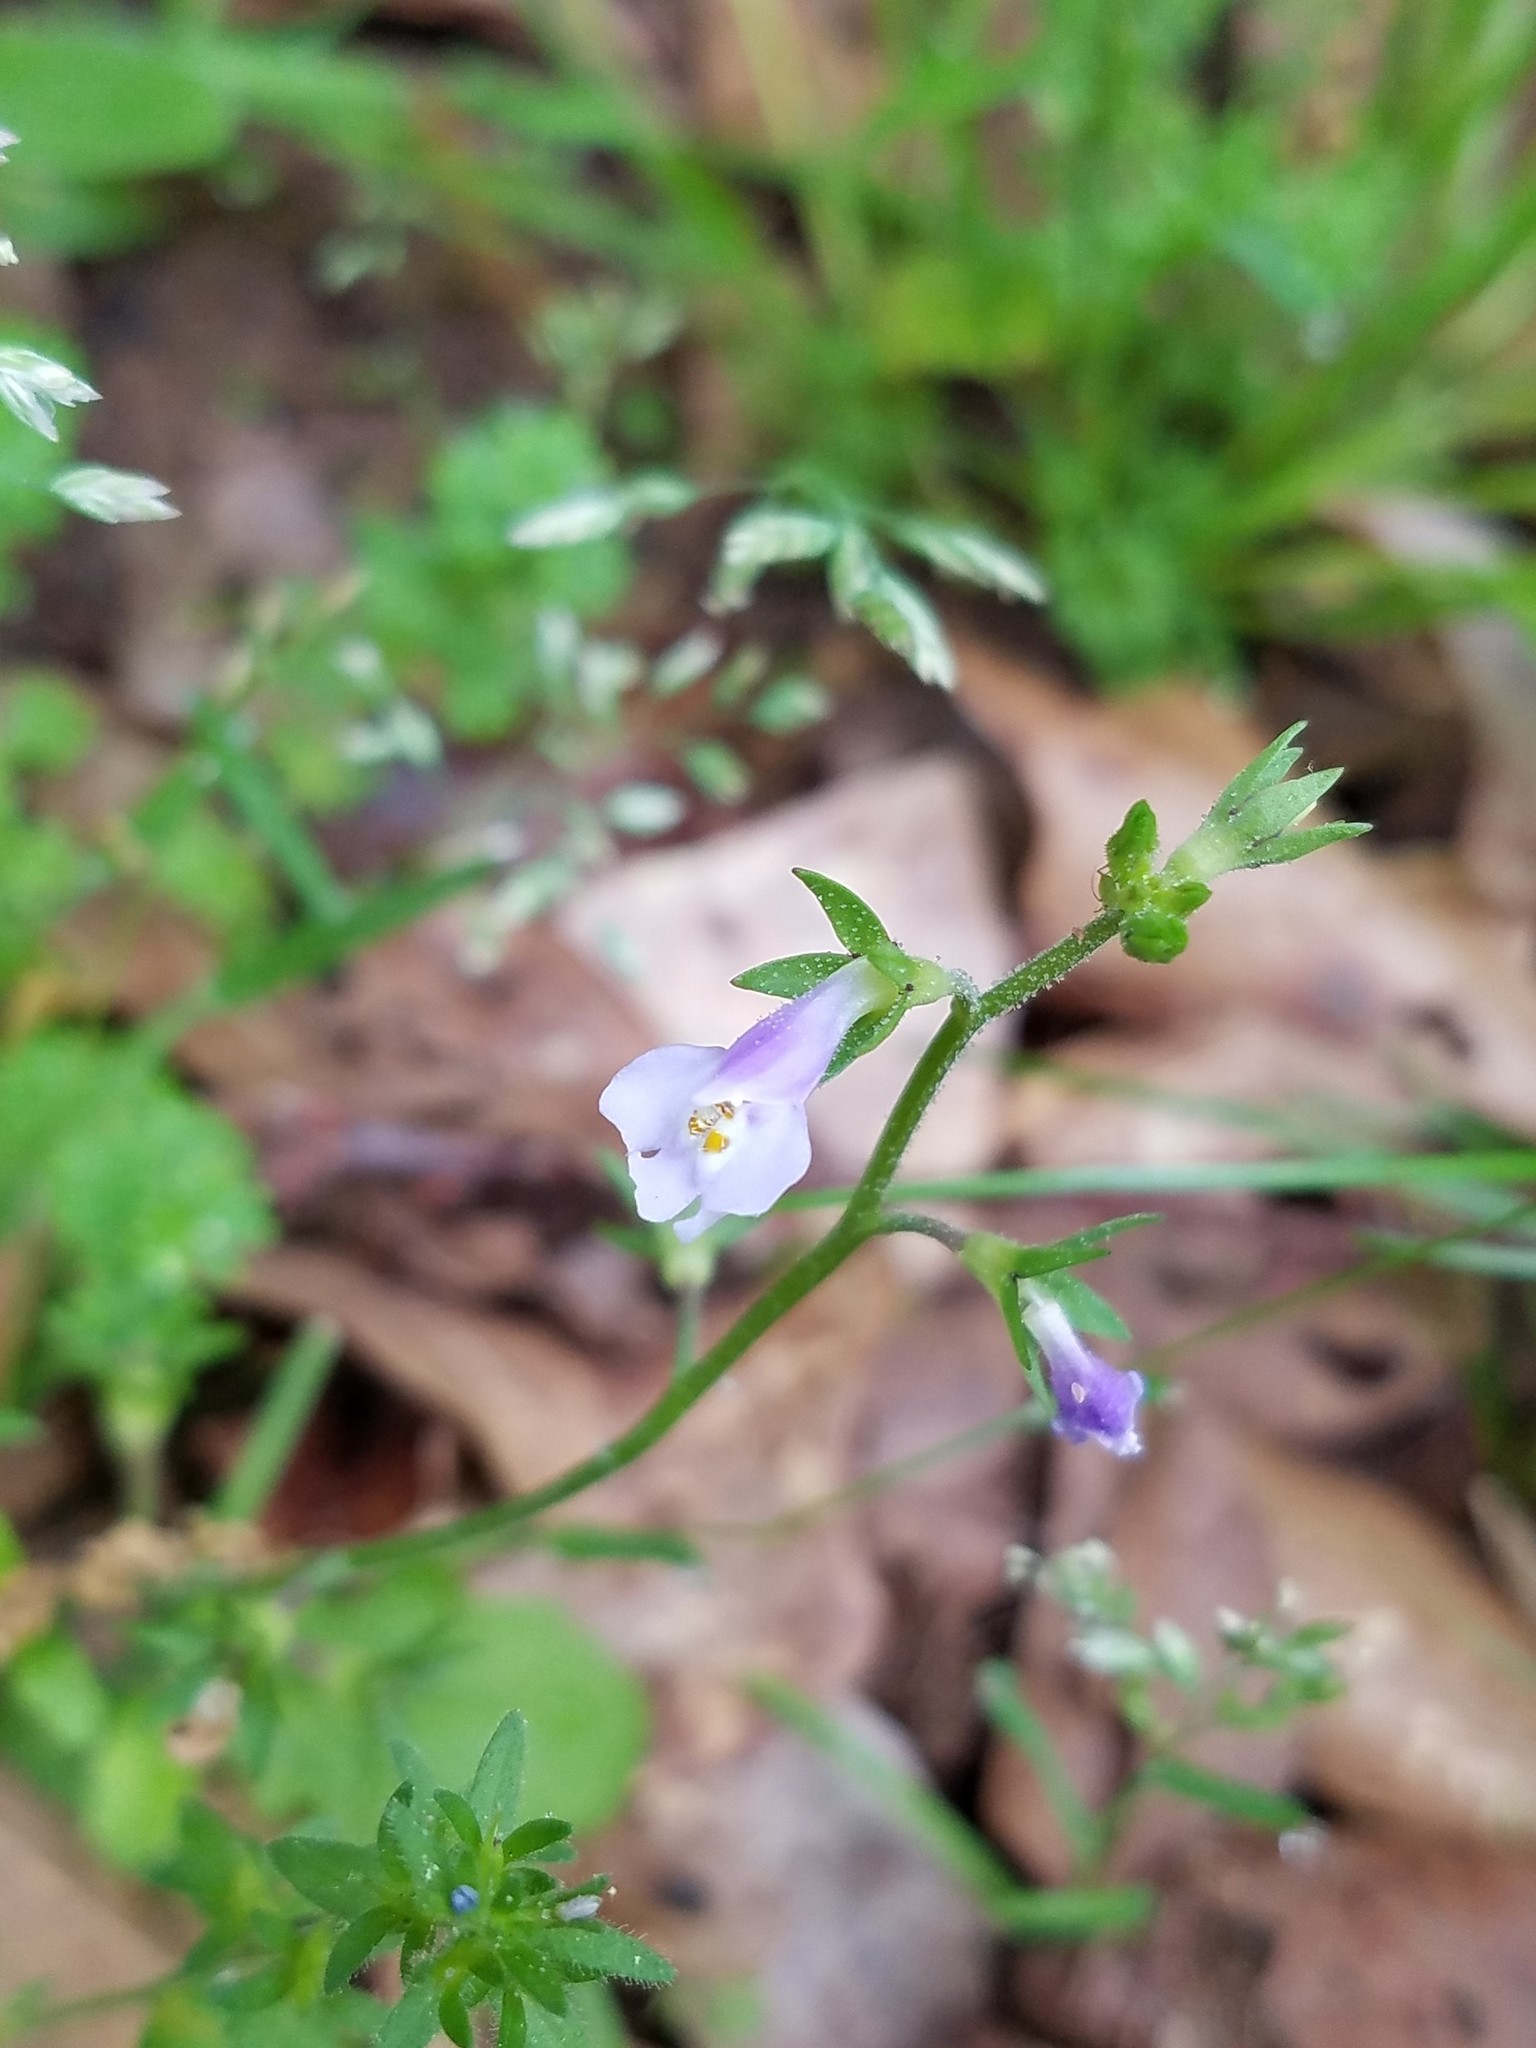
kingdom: Plantae
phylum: Tracheophyta
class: Magnoliopsida
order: Lamiales
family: Mazaceae
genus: Mazus
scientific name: Mazus pumilus
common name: Japanese mazus
